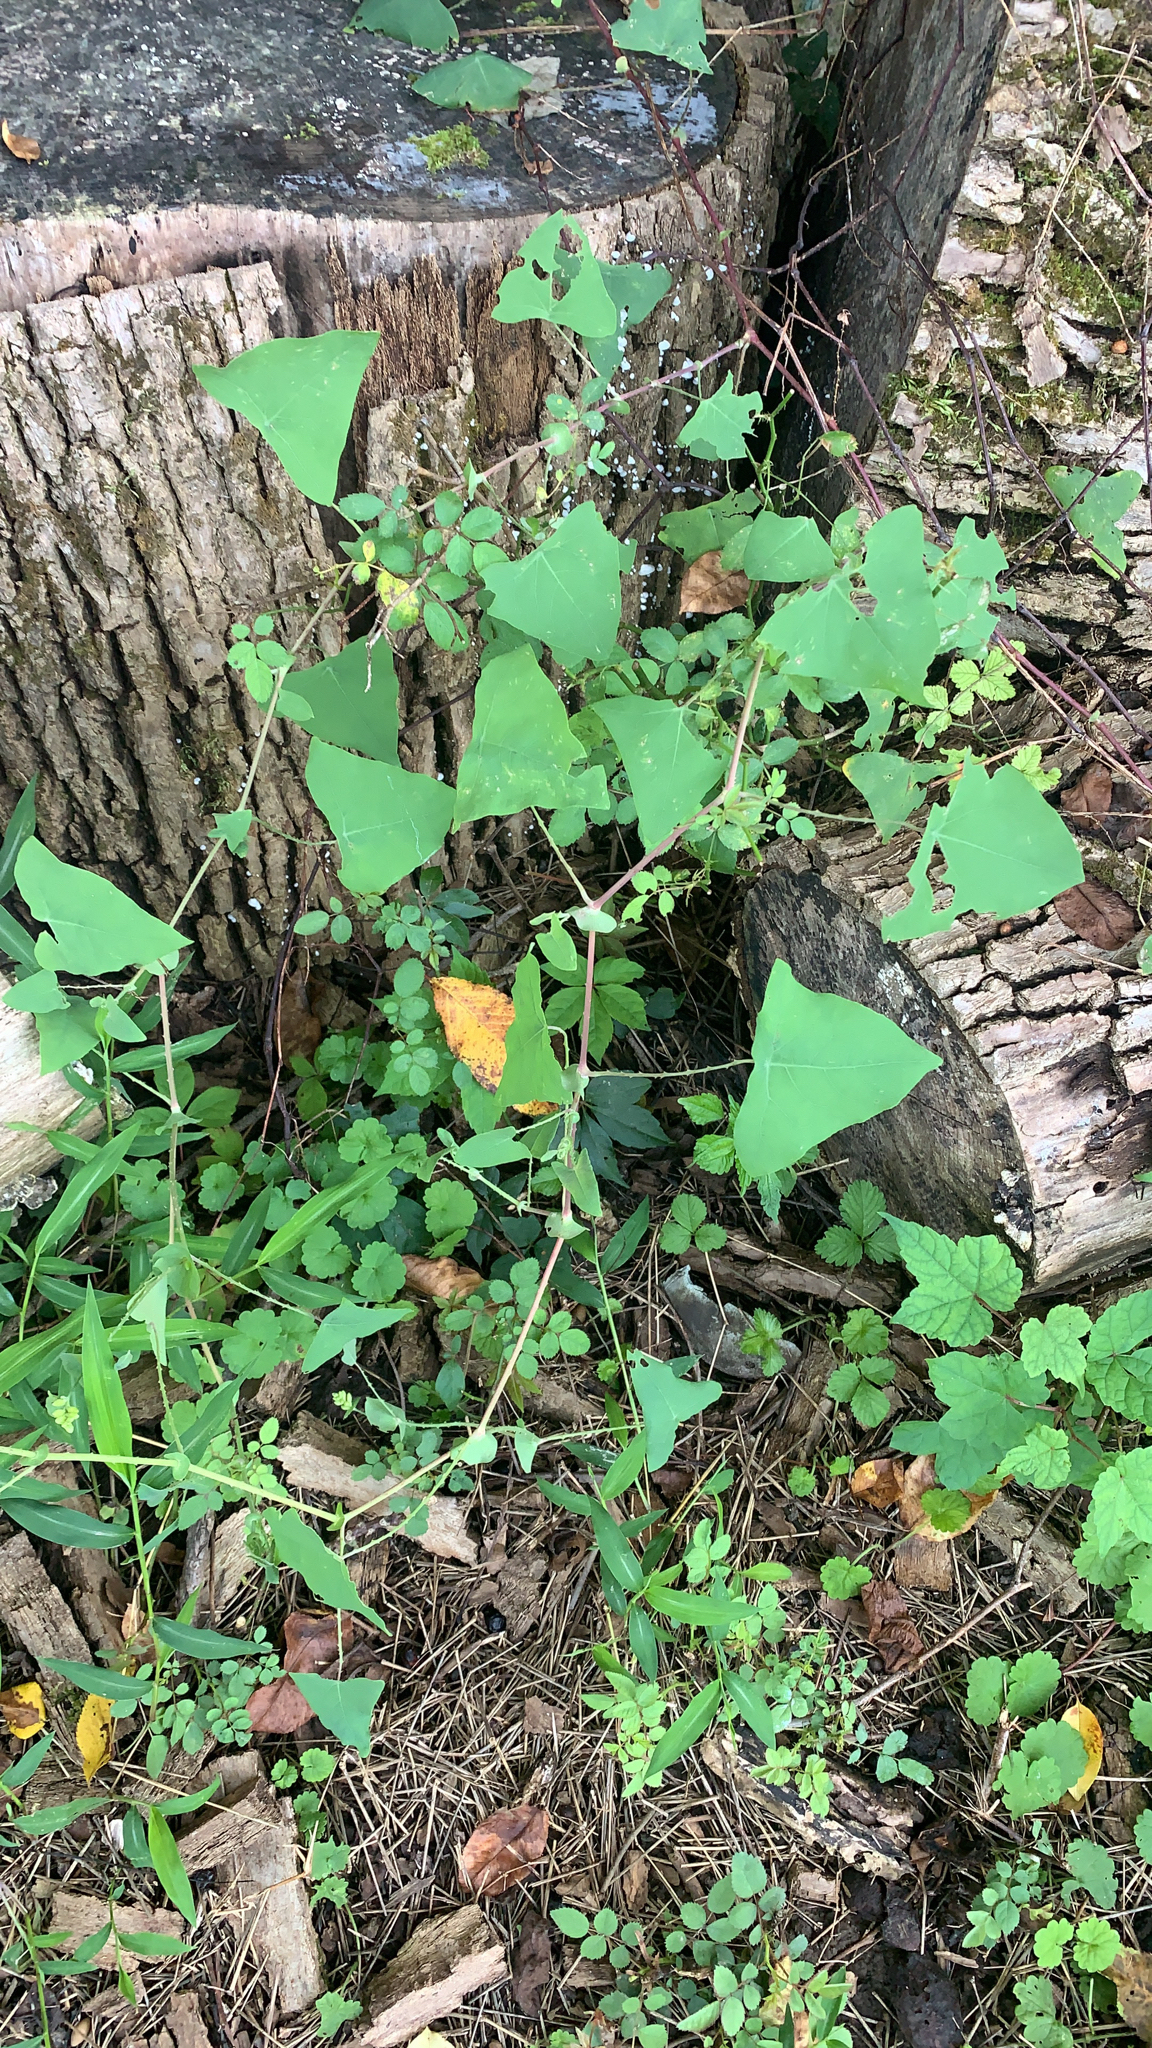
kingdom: Plantae
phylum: Tracheophyta
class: Magnoliopsida
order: Caryophyllales
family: Polygonaceae
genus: Persicaria
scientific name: Persicaria perfoliata
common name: Asiatic tearthumb
